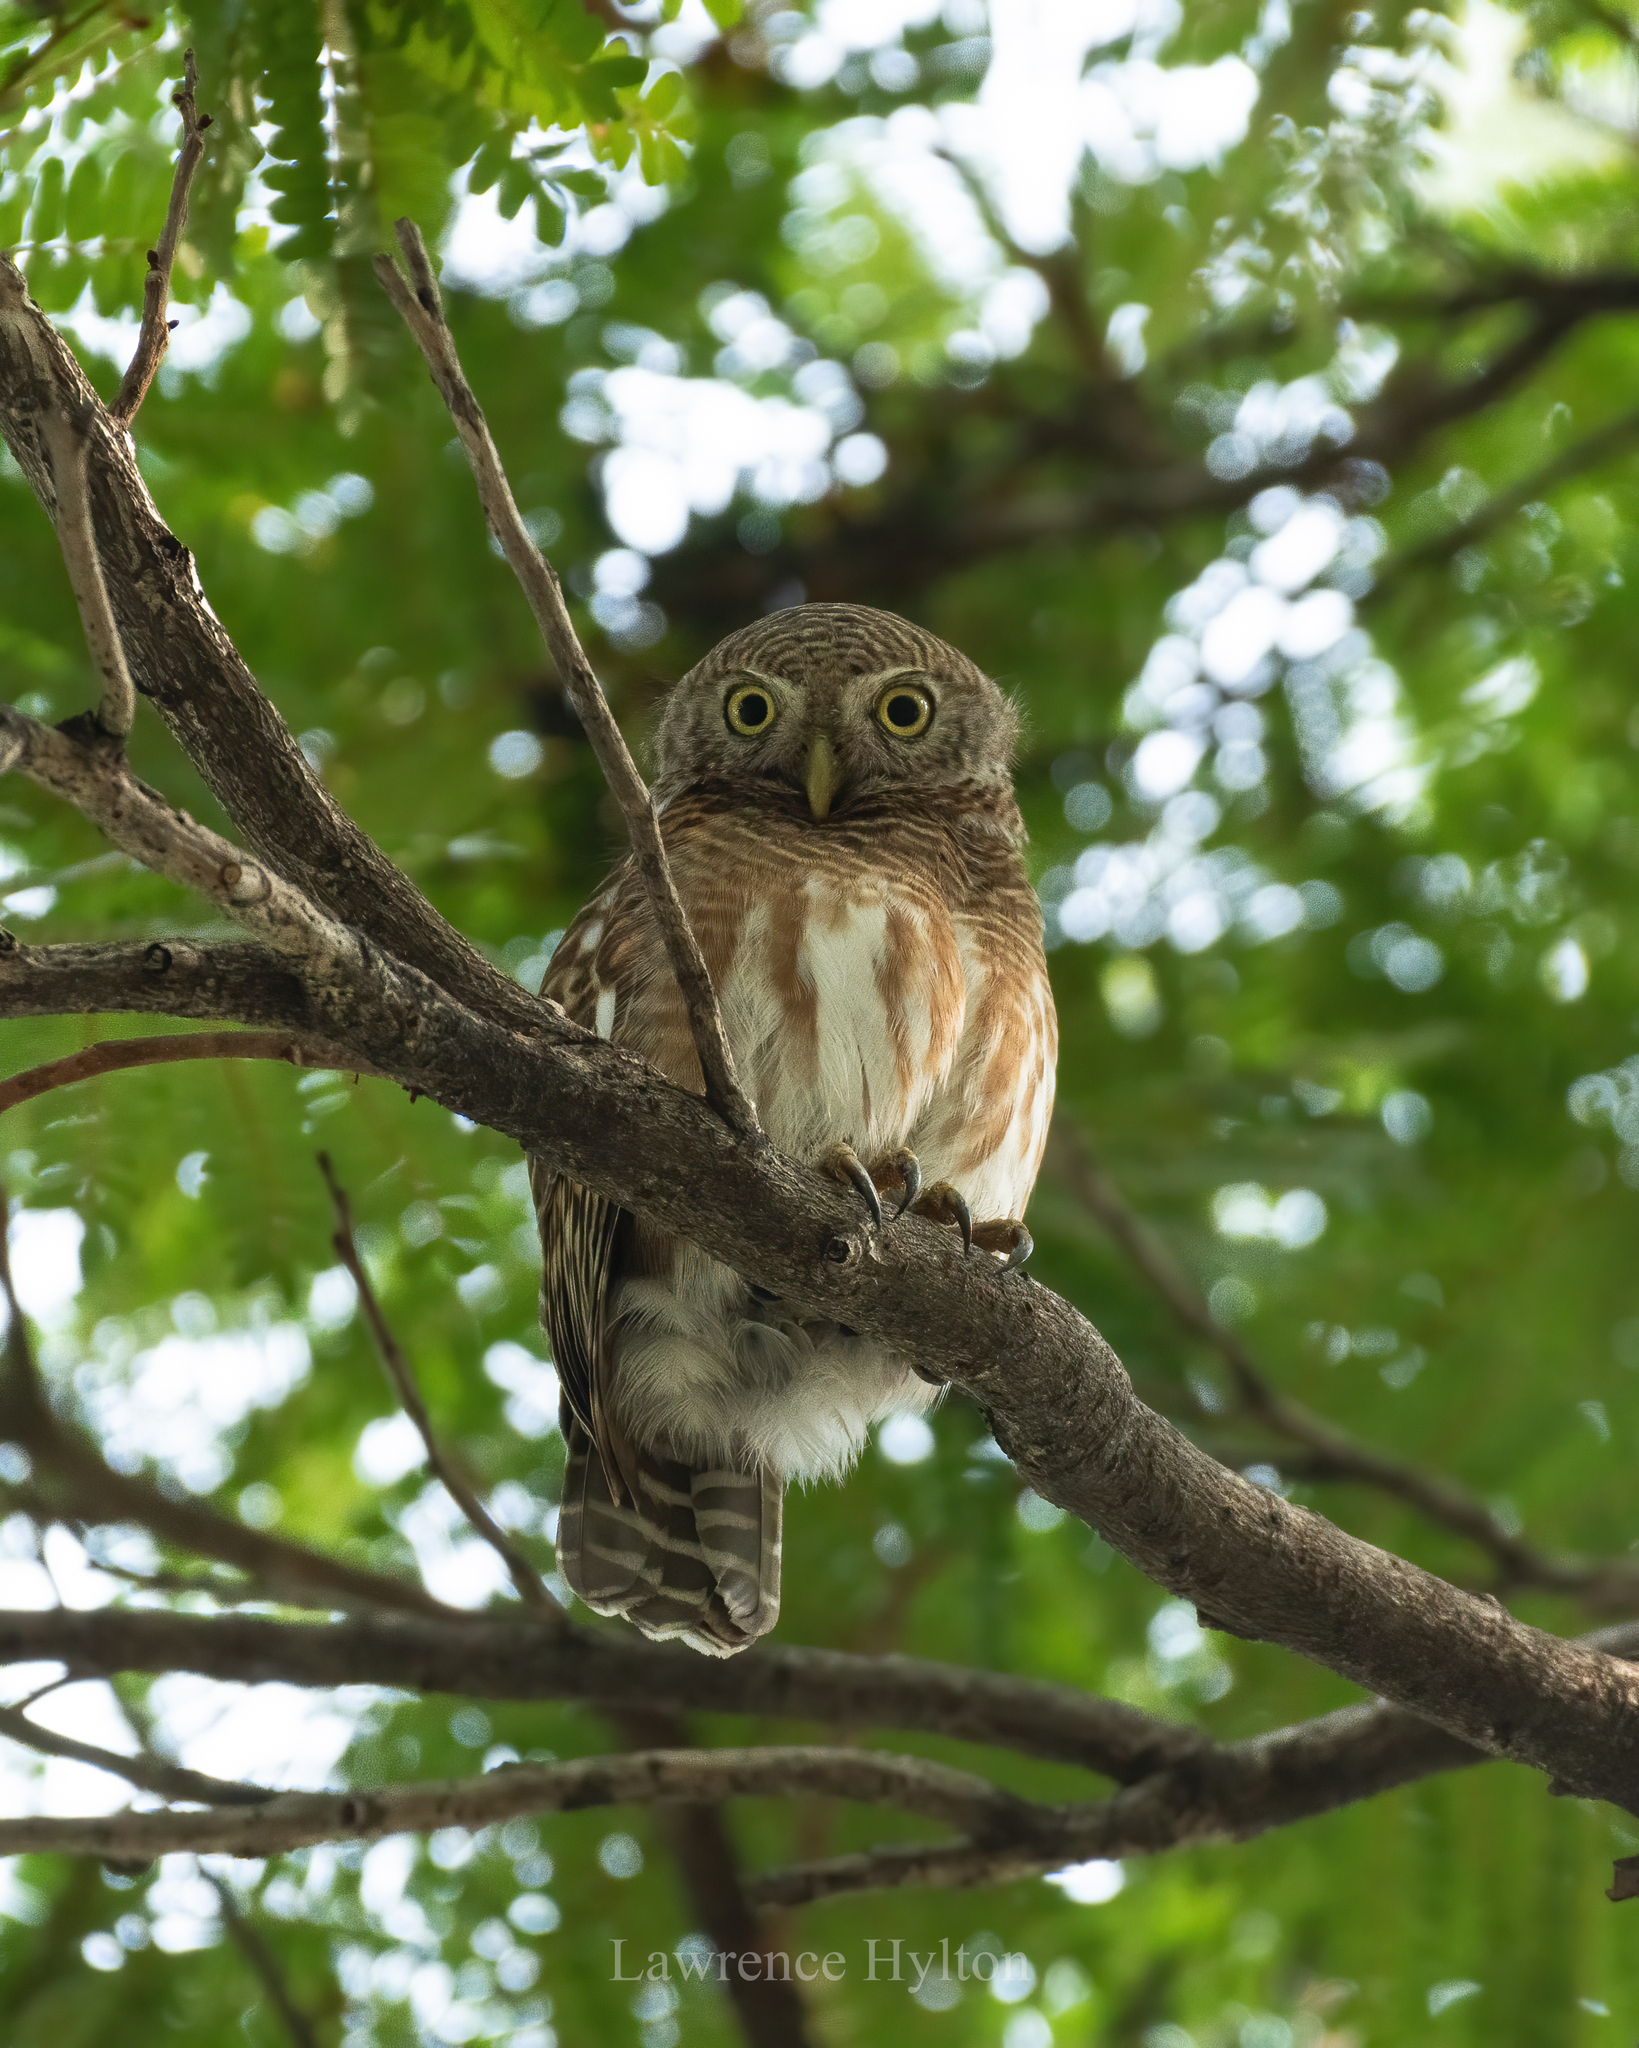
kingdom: Animalia
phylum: Chordata
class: Aves
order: Strigiformes
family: Strigidae
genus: Glaucidium
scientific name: Glaucidium cuculoides
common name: Asian barred owlet
